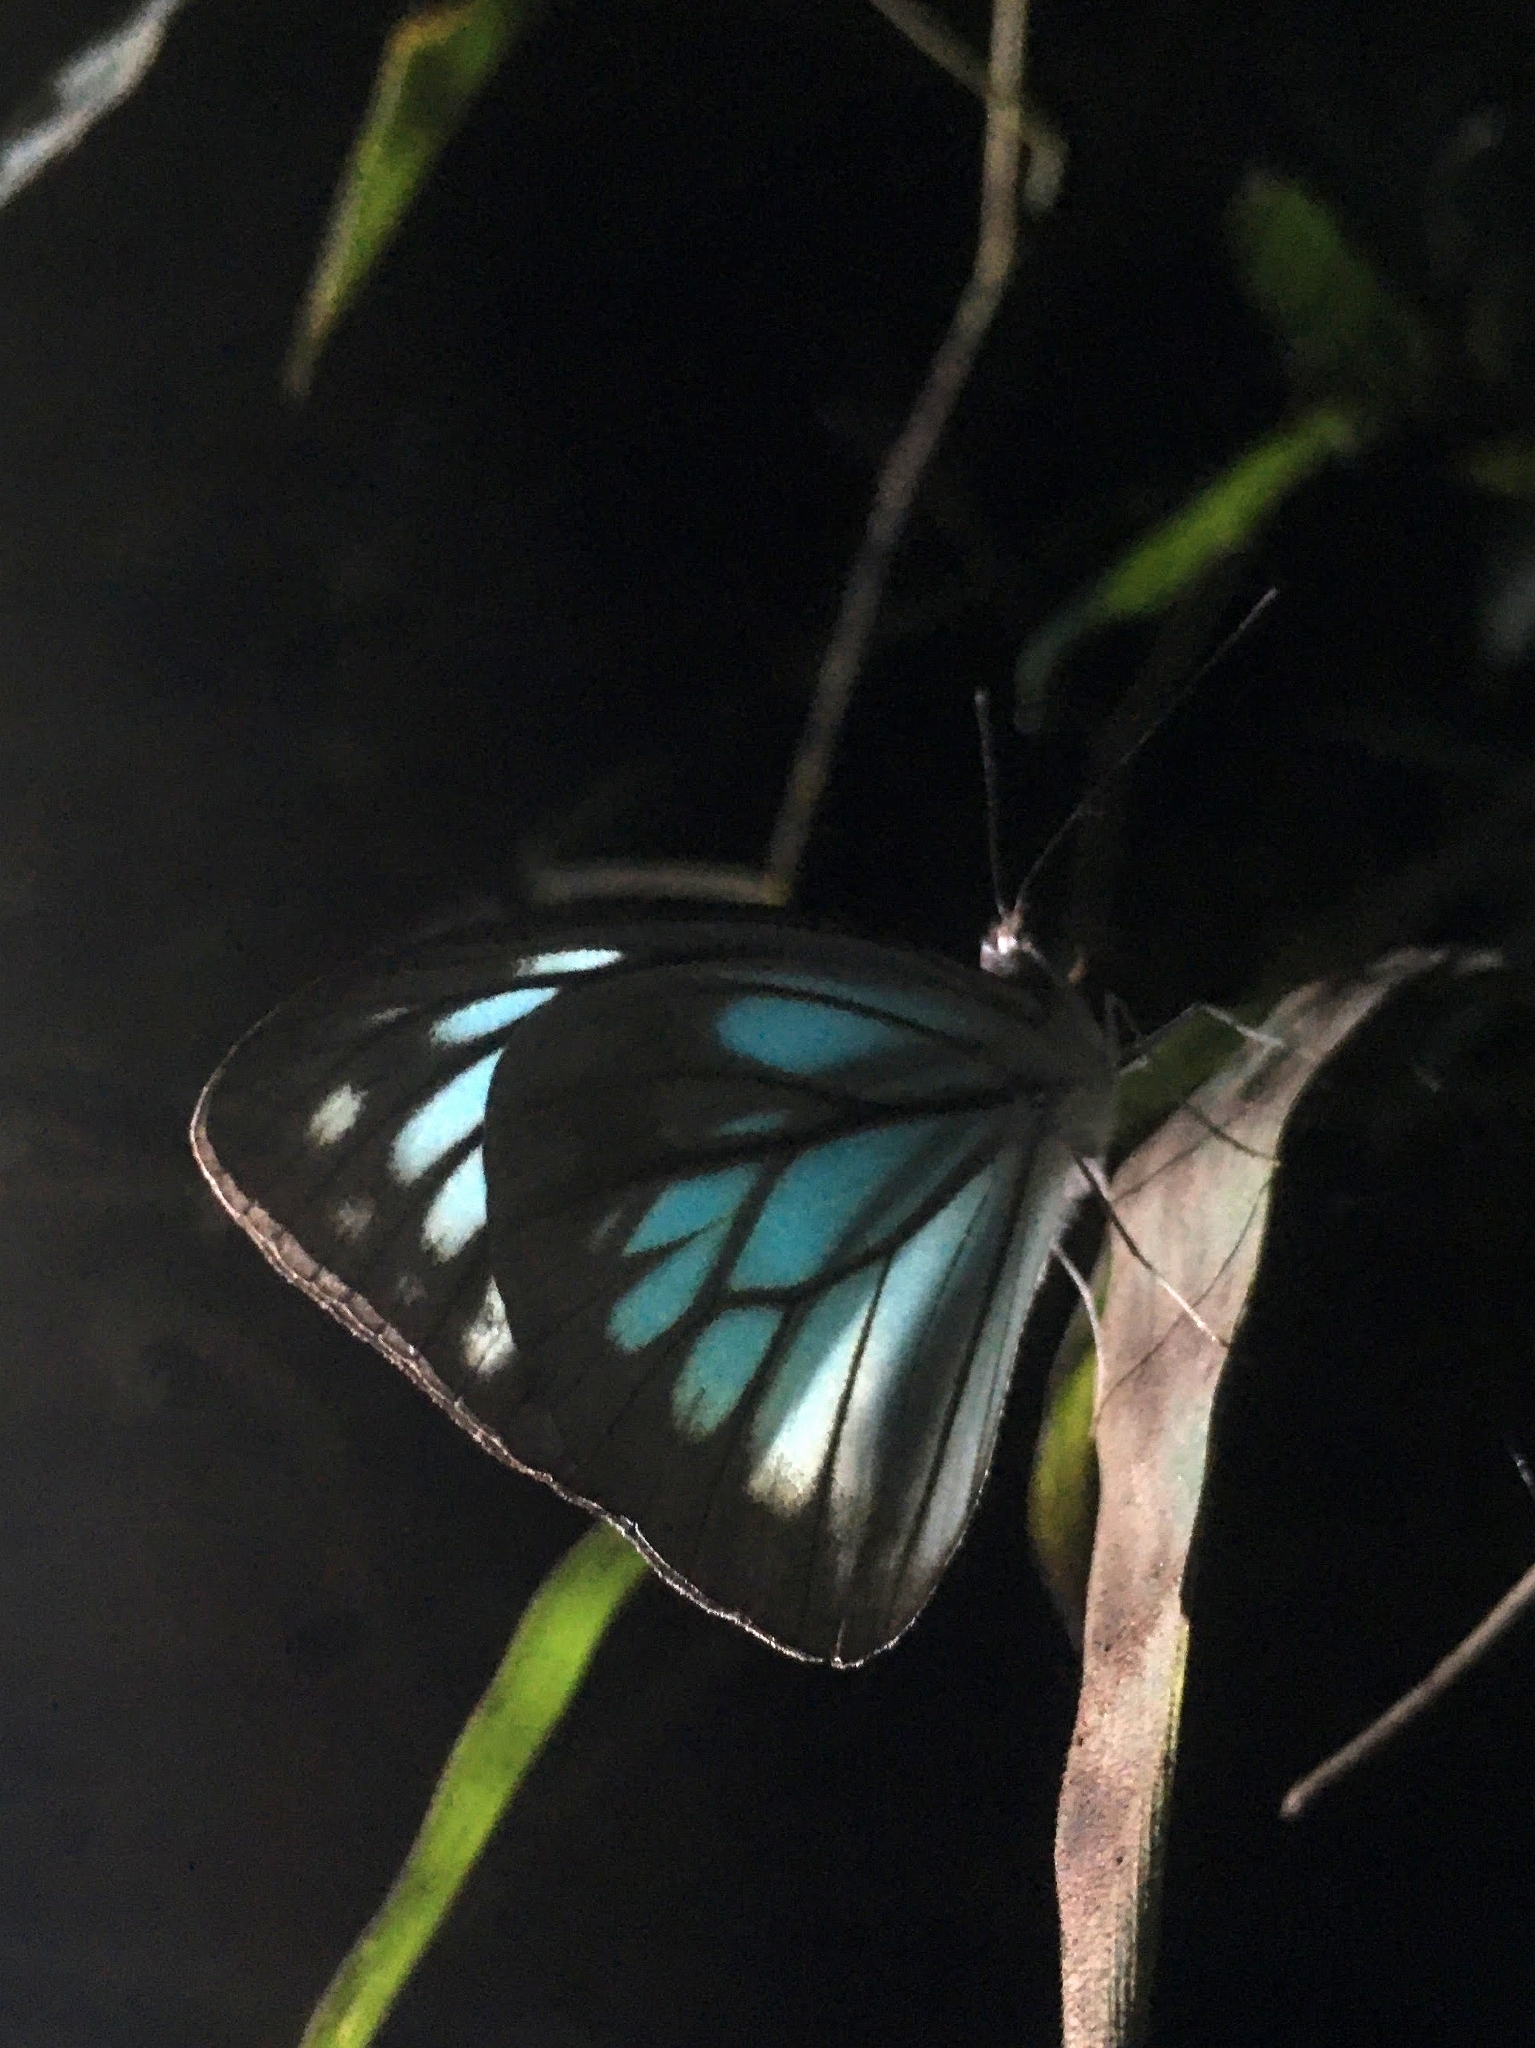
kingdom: Animalia
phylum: Arthropoda
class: Insecta
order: Lepidoptera
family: Pieridae
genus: Pareronia
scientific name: Pareronia hippia
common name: Indian wanderer
